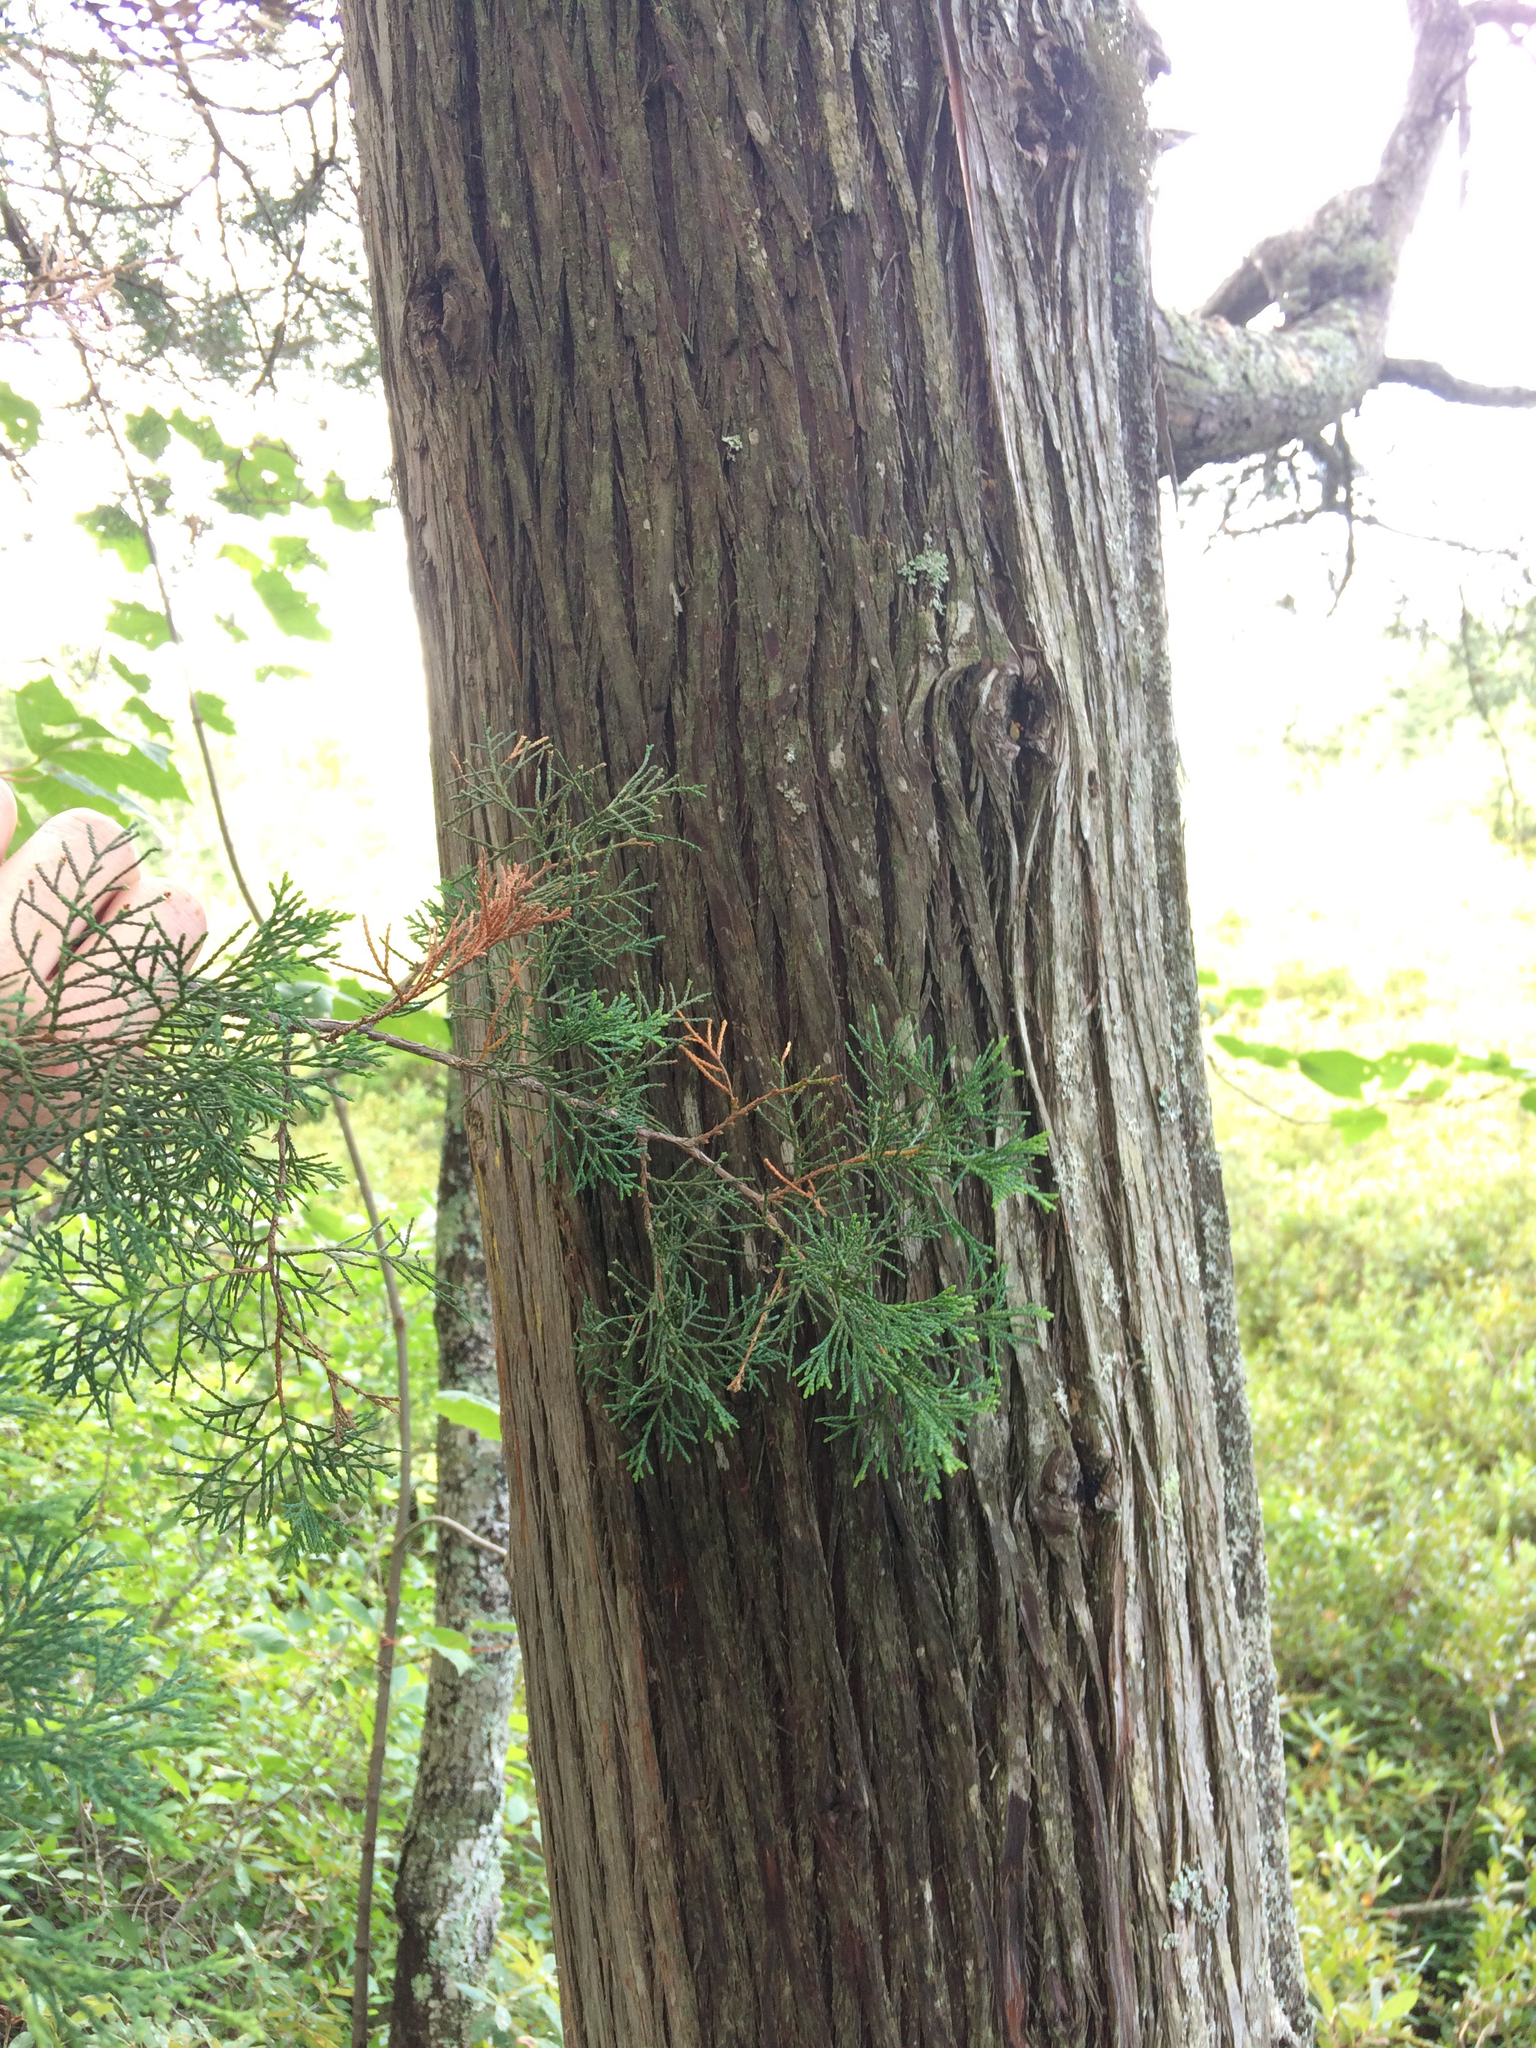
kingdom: Plantae
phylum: Tracheophyta
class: Pinopsida
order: Pinales
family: Cupressaceae
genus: Chamaecyparis
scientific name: Chamaecyparis thyoides
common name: Atlantic white cedar
